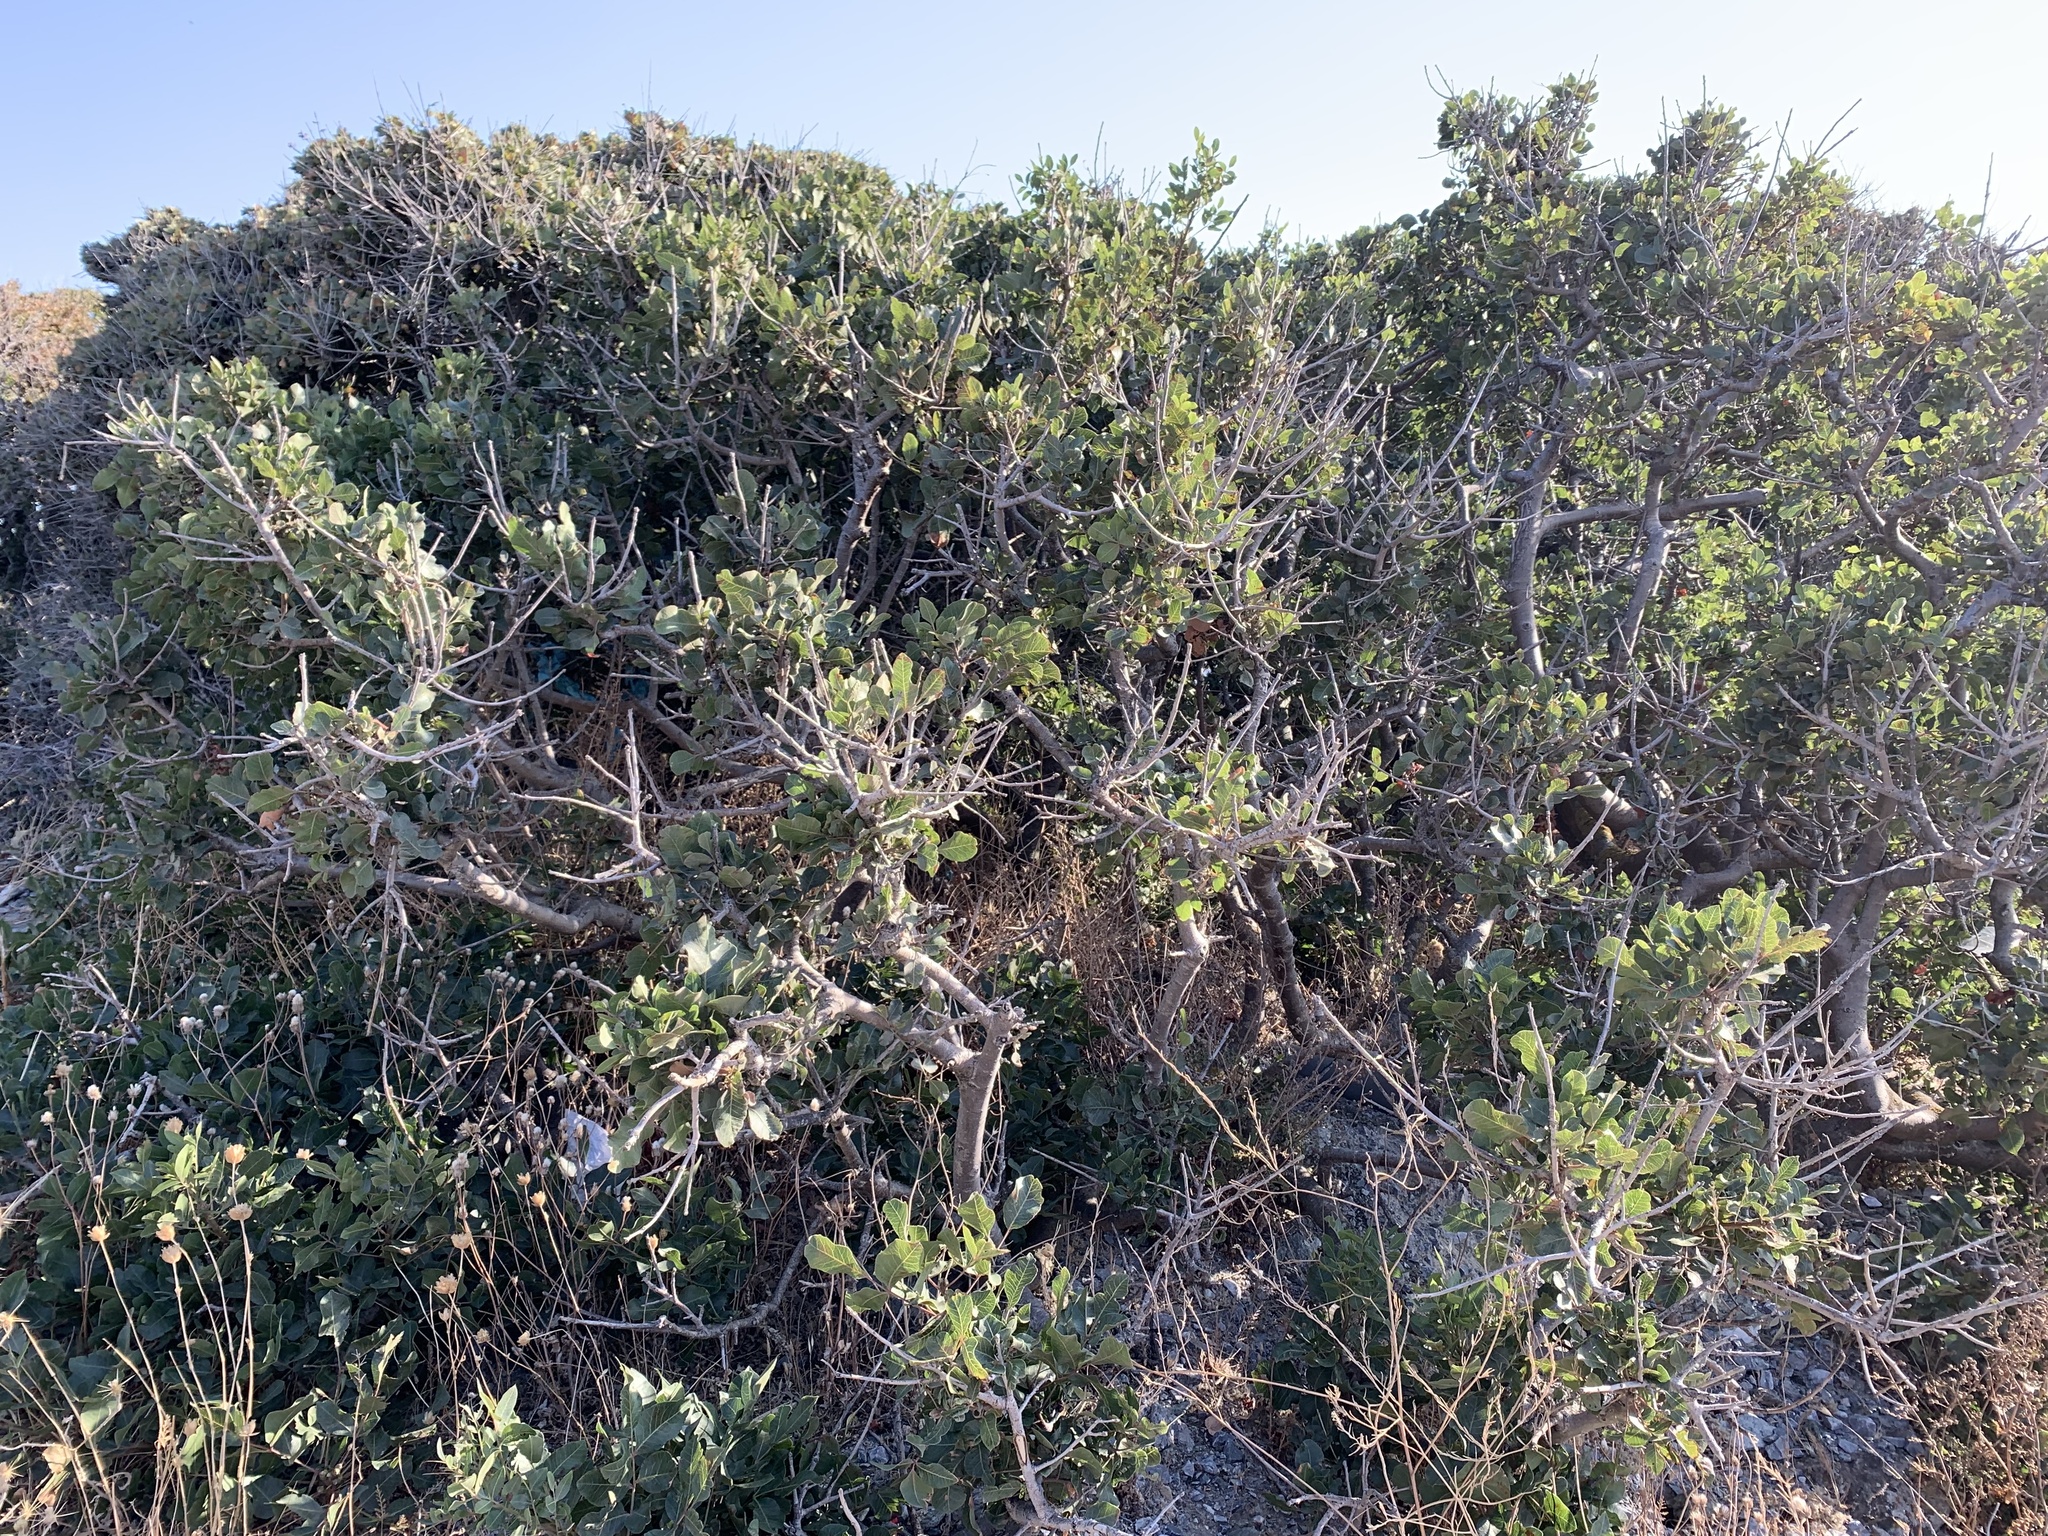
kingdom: Plantae
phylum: Tracheophyta
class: Magnoliopsida
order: Fabales
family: Fabaceae
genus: Ceratonia
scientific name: Ceratonia siliqua
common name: Carob
